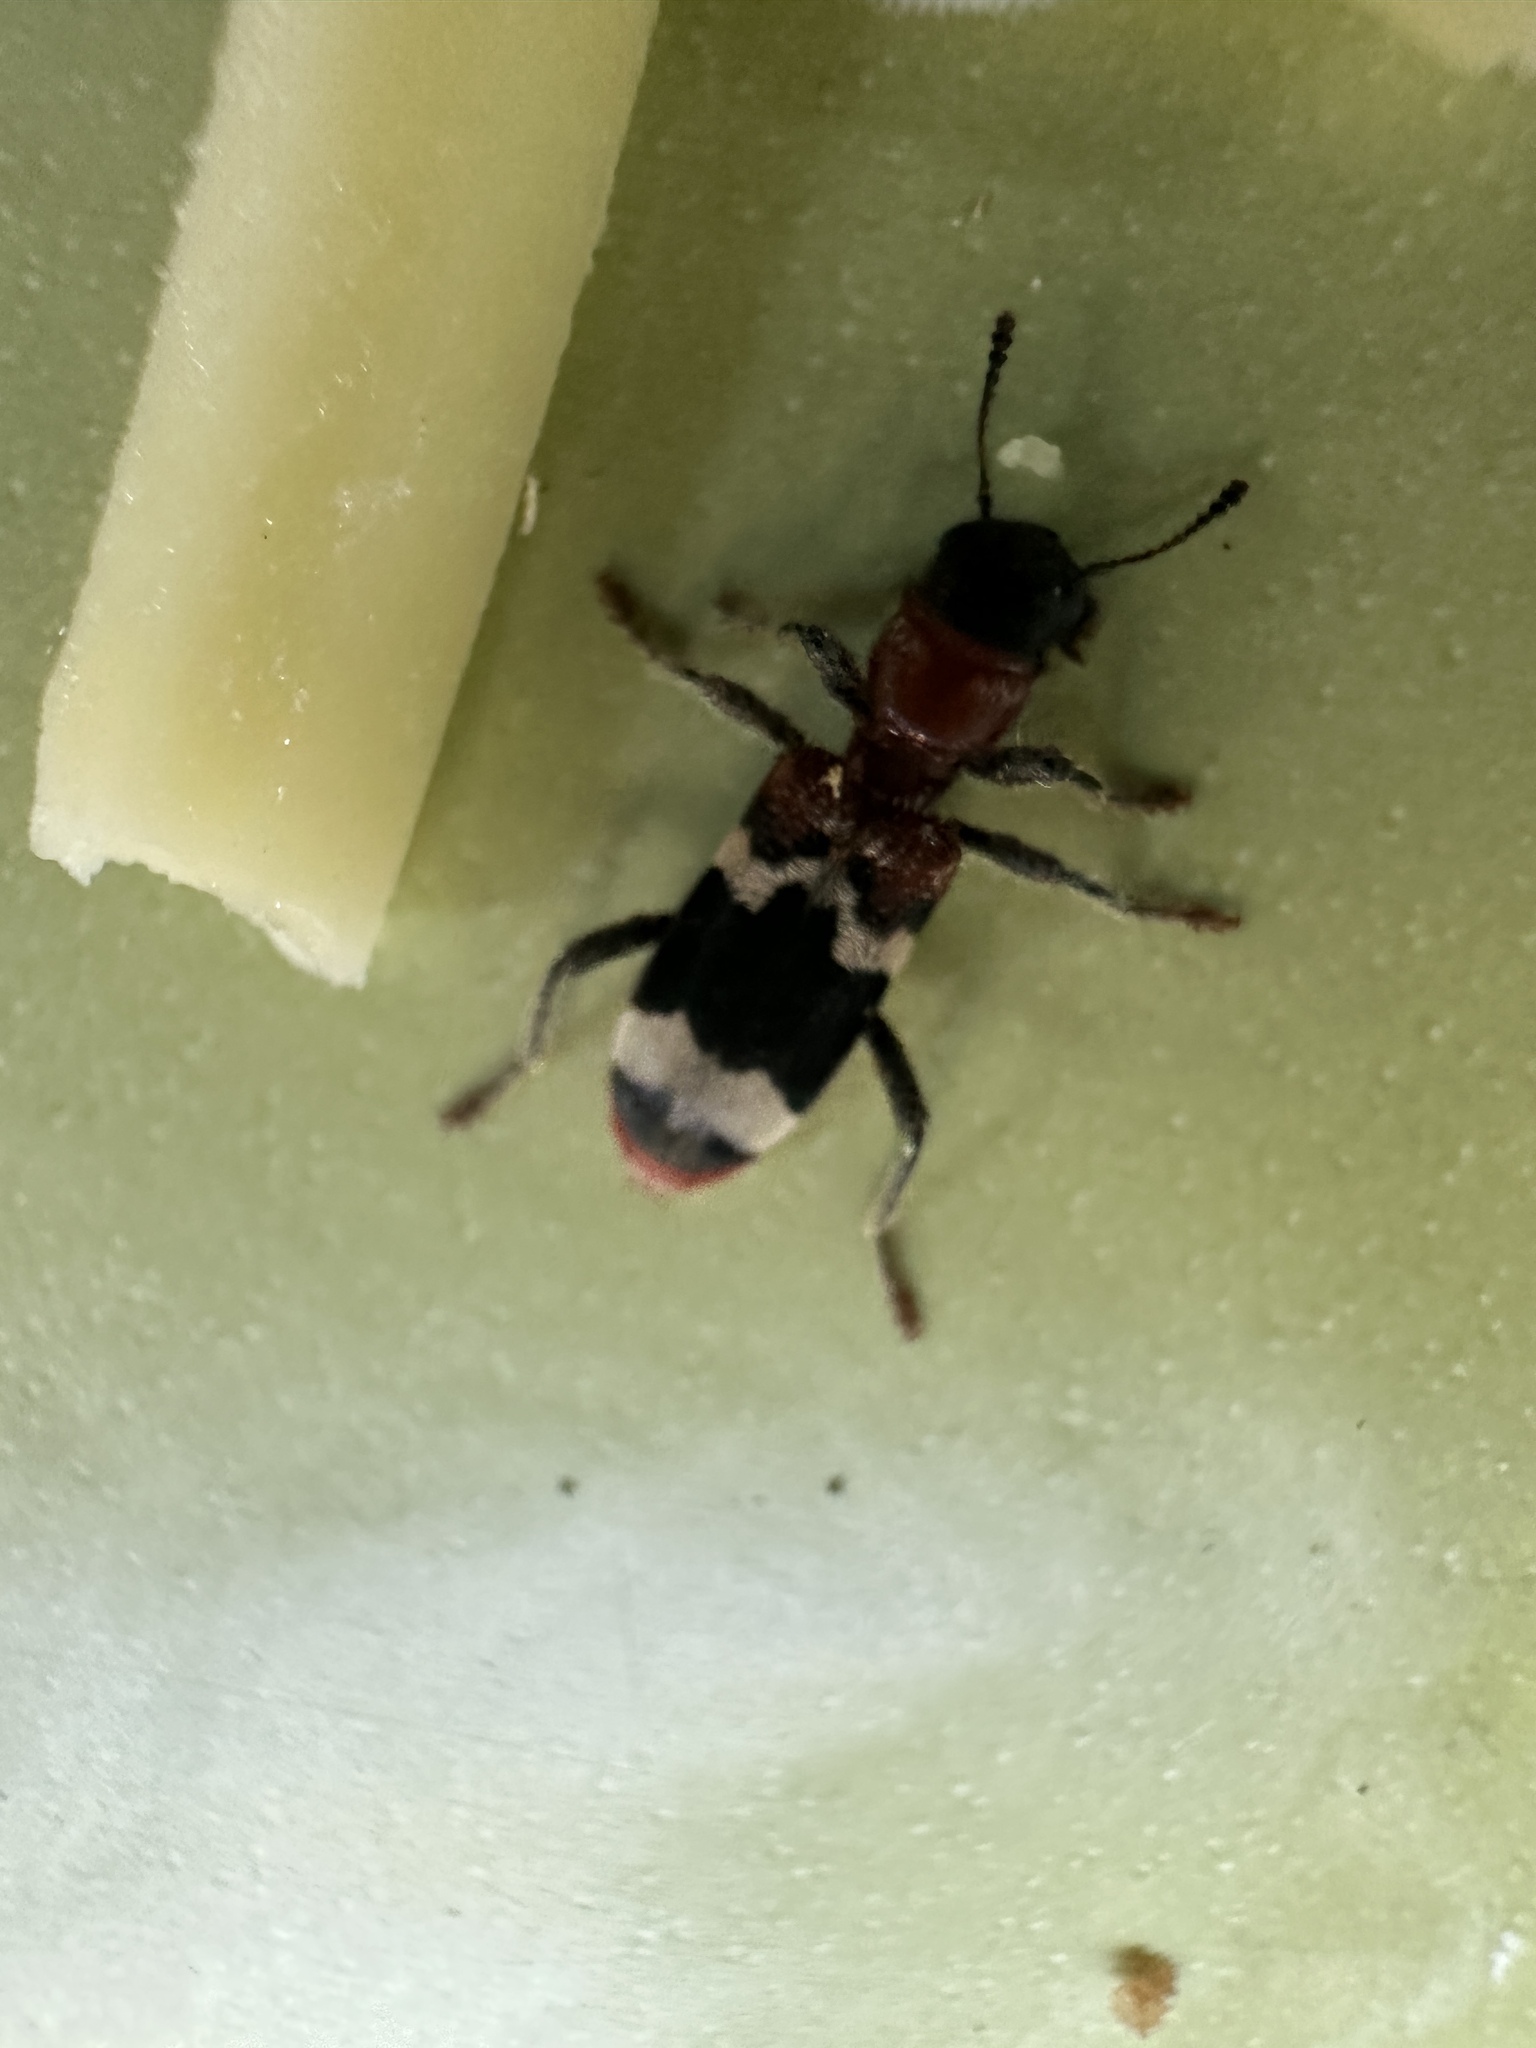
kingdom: Animalia
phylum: Arthropoda
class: Insecta
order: Coleoptera
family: Cleridae
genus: Thanasimus
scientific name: Thanasimus formicarius
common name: Ant beetle
